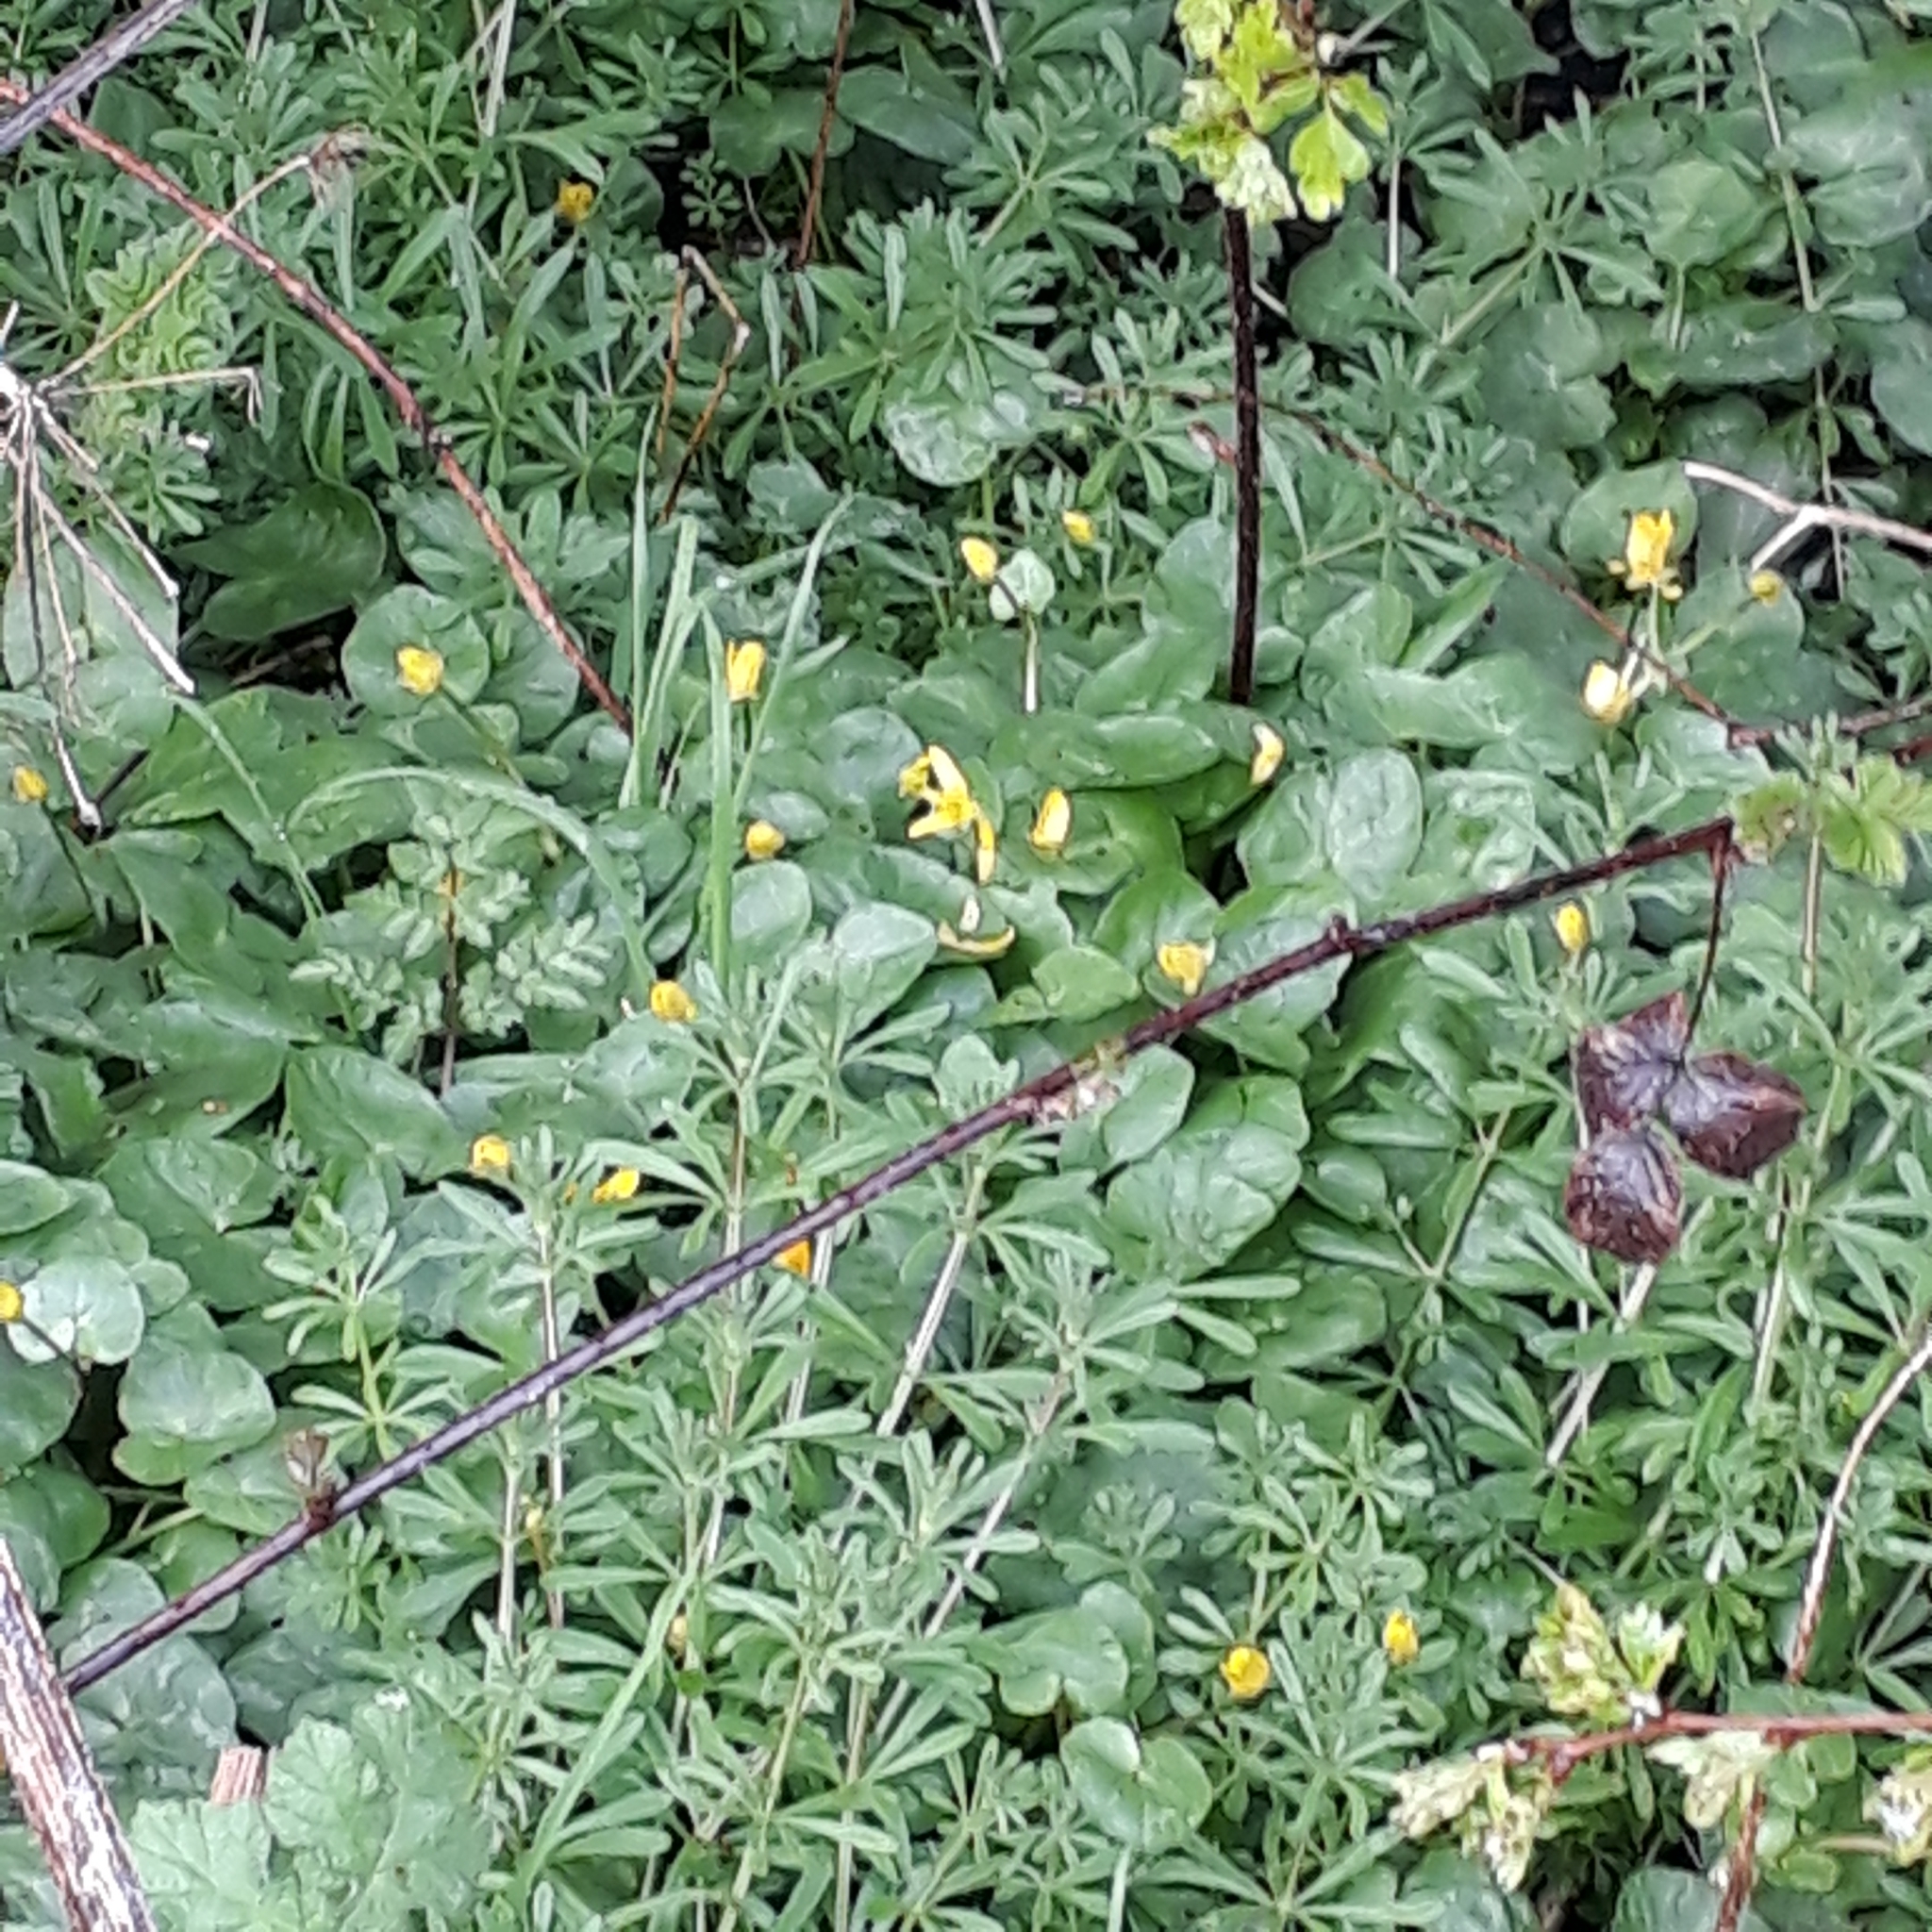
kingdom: Plantae
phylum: Tracheophyta
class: Magnoliopsida
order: Ranunculales
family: Ranunculaceae
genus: Ficaria
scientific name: Ficaria verna
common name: Lesser celandine
